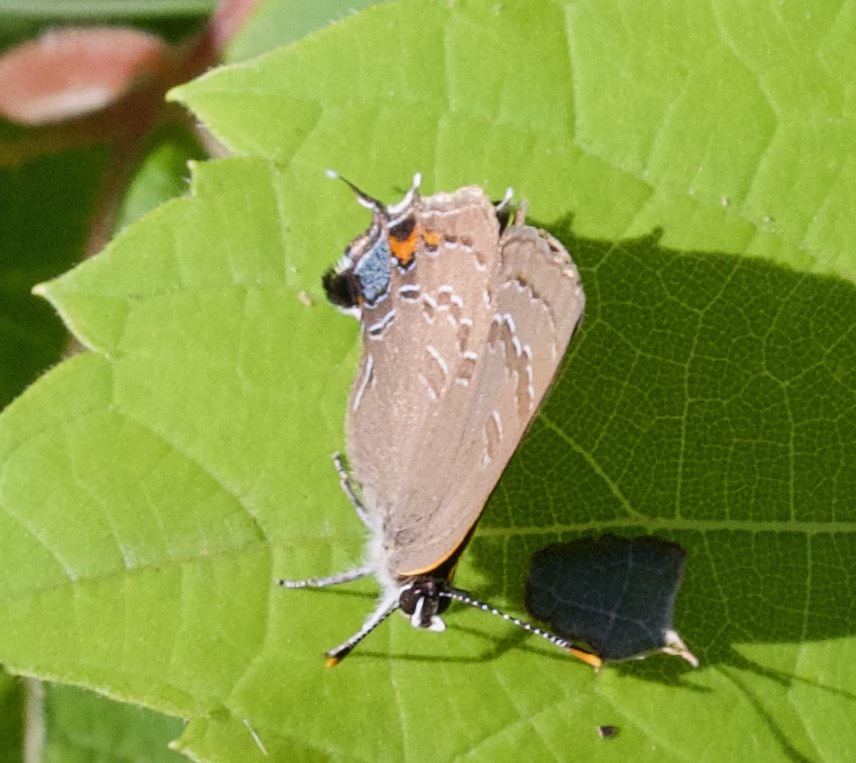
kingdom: Animalia
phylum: Arthropoda
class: Insecta
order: Lepidoptera
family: Lycaenidae
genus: Satyrium
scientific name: Satyrium calanus
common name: Banded hairstreak
